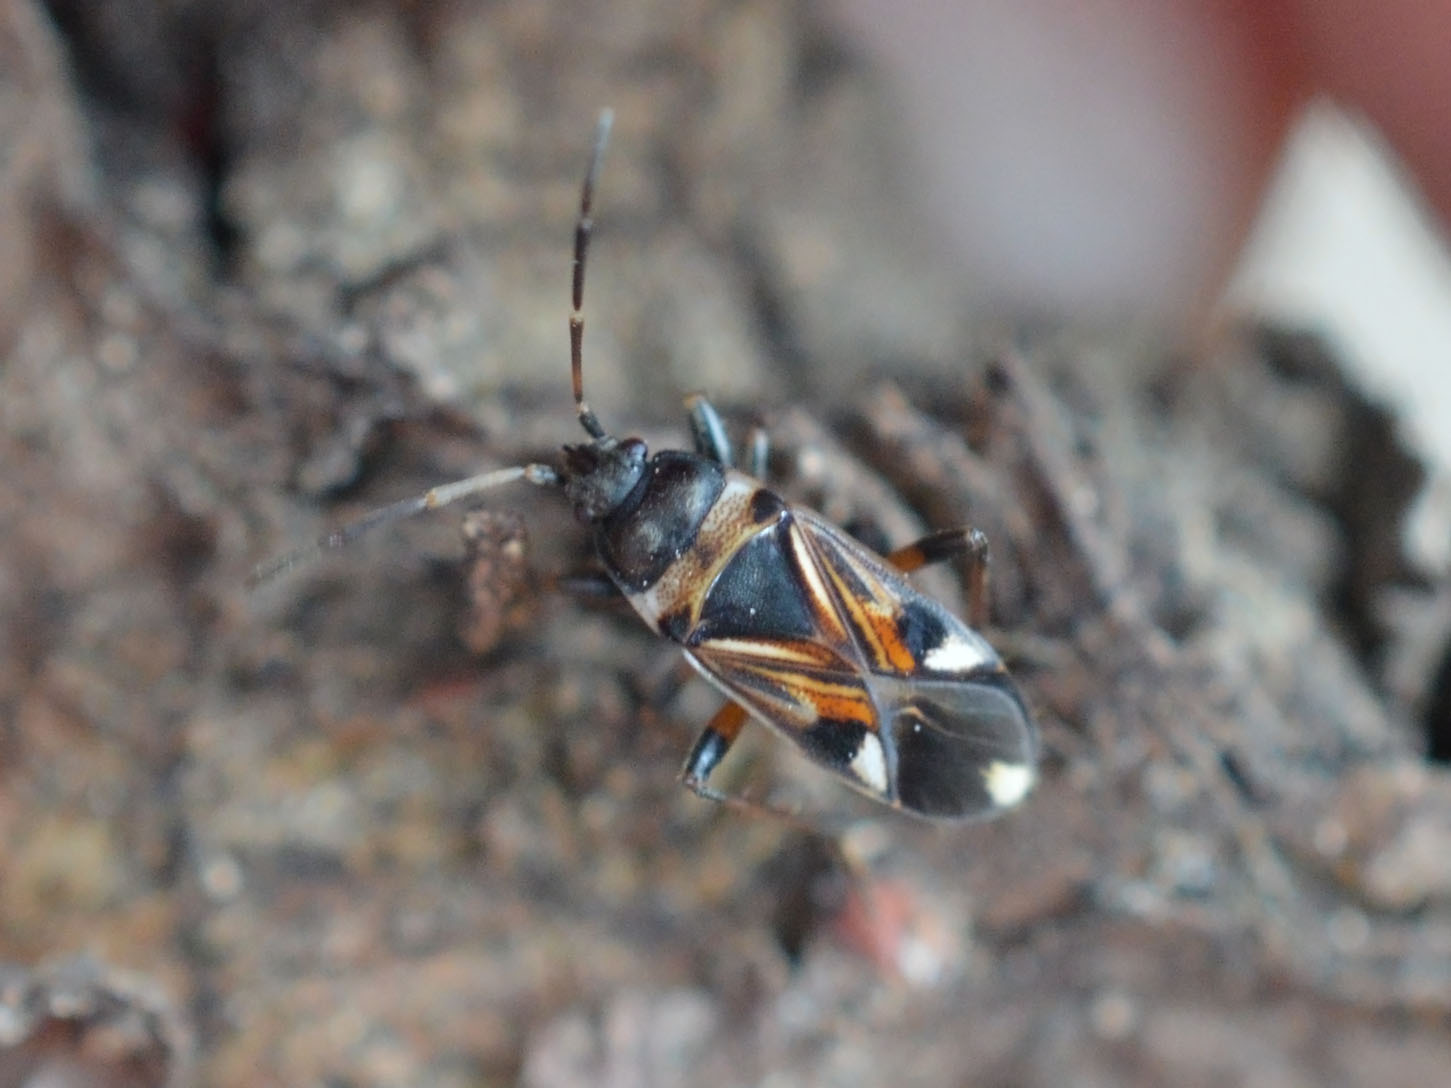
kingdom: Animalia
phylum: Arthropoda
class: Insecta
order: Hemiptera
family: Rhyparochromidae
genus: Raglius
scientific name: Raglius alboacuminatus
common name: Dirt-colored seed bug
